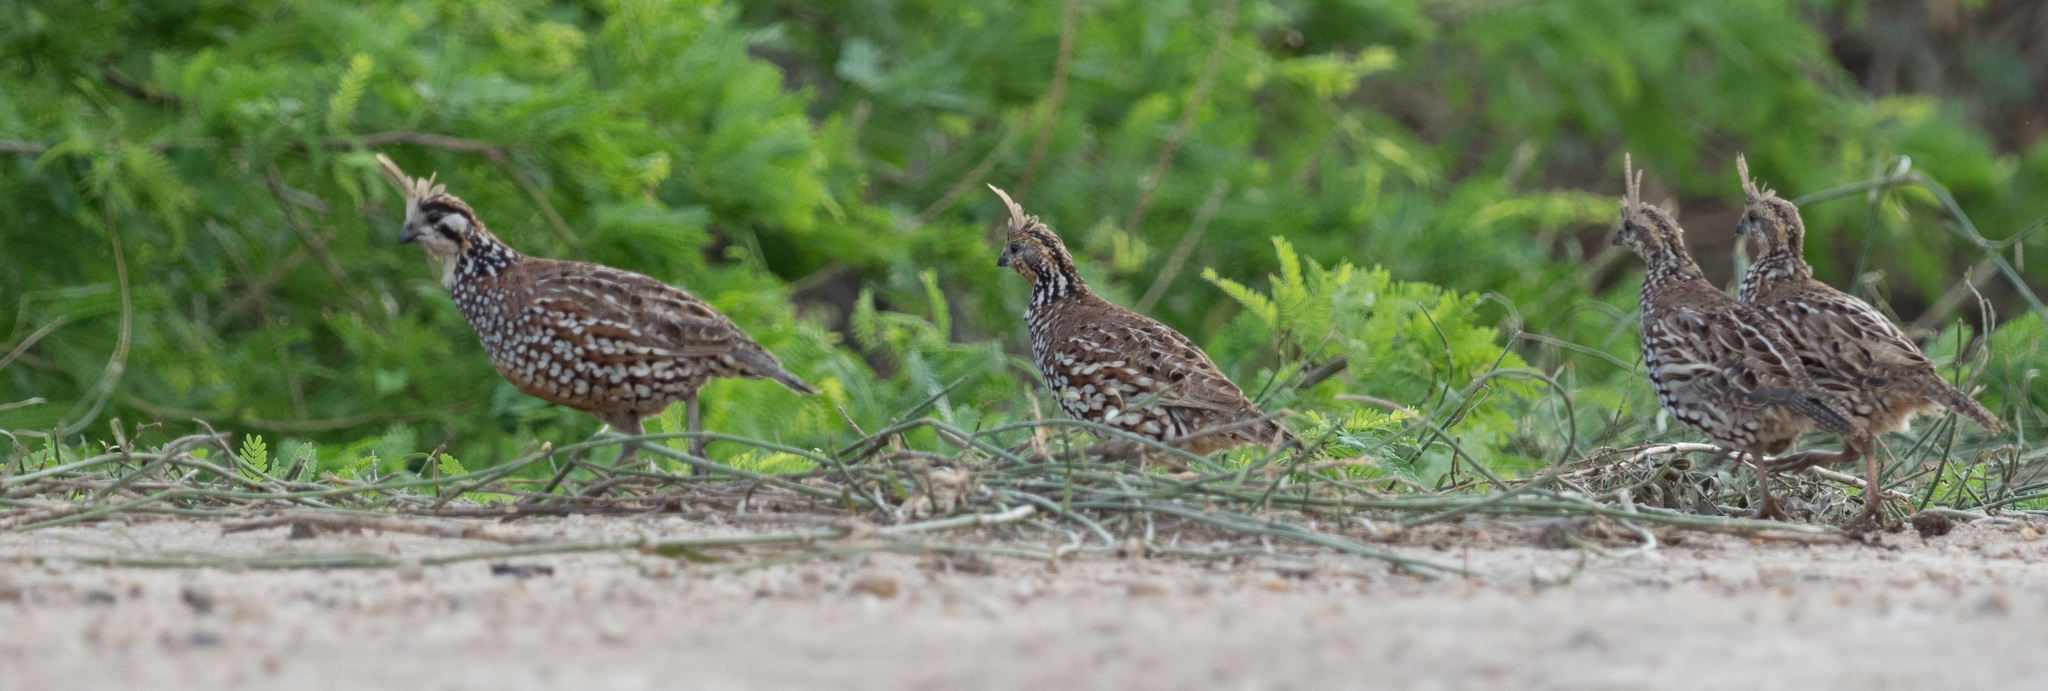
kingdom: Animalia
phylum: Chordata
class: Aves
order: Galliformes
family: Odontophoridae
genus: Colinus
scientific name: Colinus cristatus
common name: Crested bobwhite
